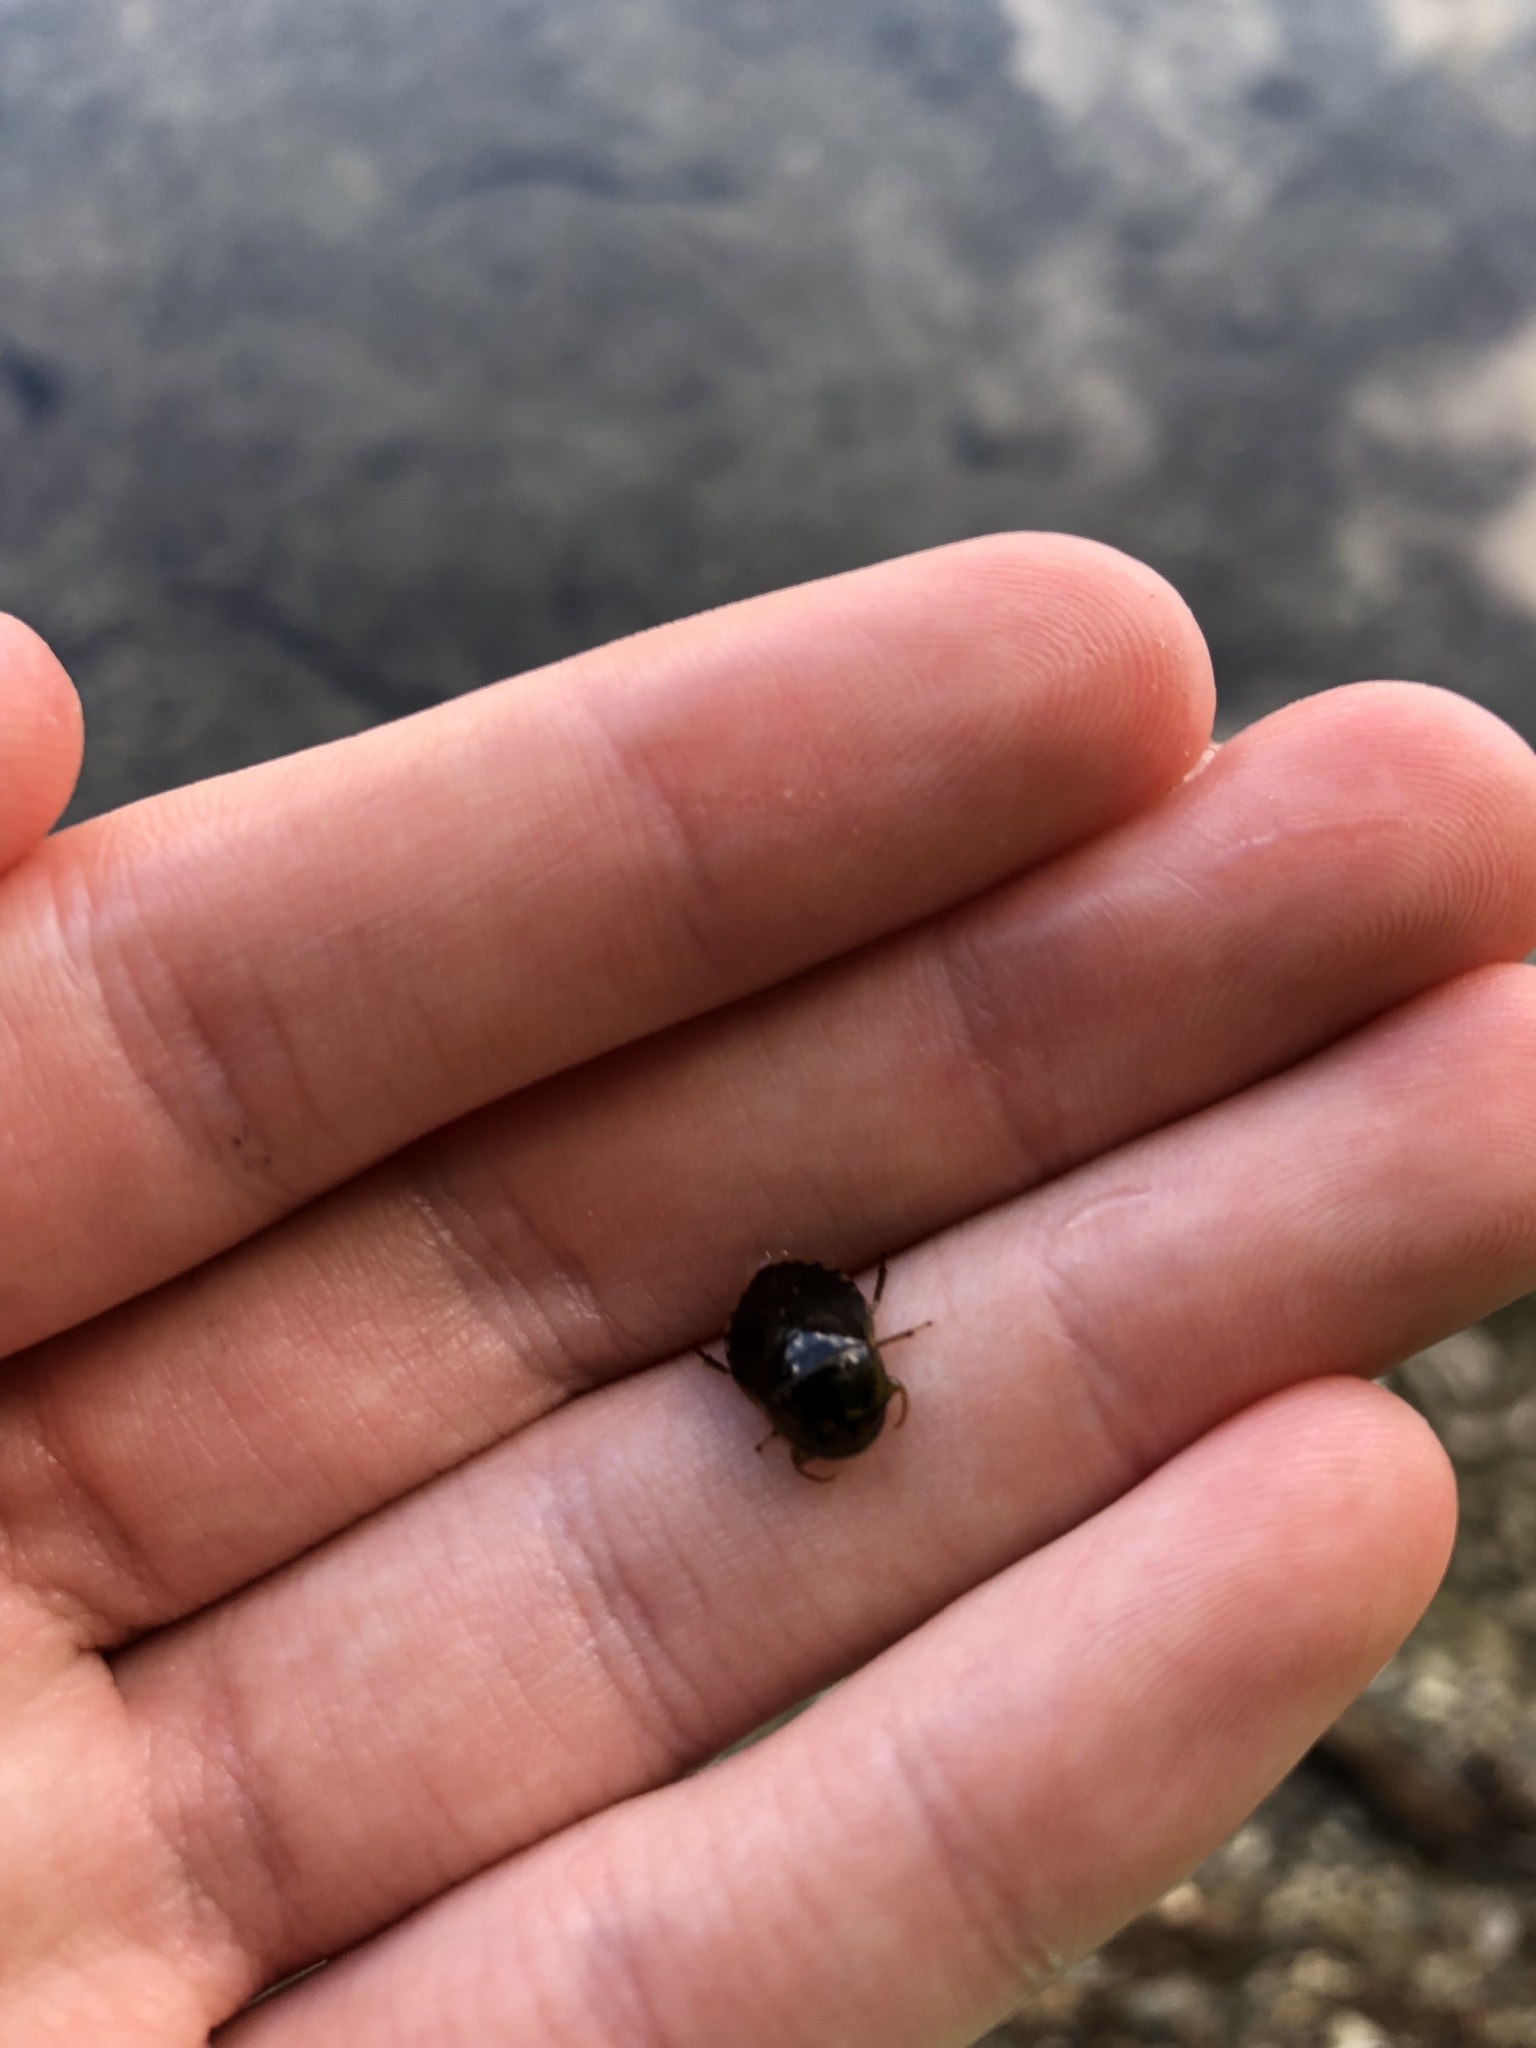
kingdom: Animalia
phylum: Arthropoda
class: Insecta
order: Hemiptera
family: Naucoridae
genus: Pelocoris
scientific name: Pelocoris femoratus
